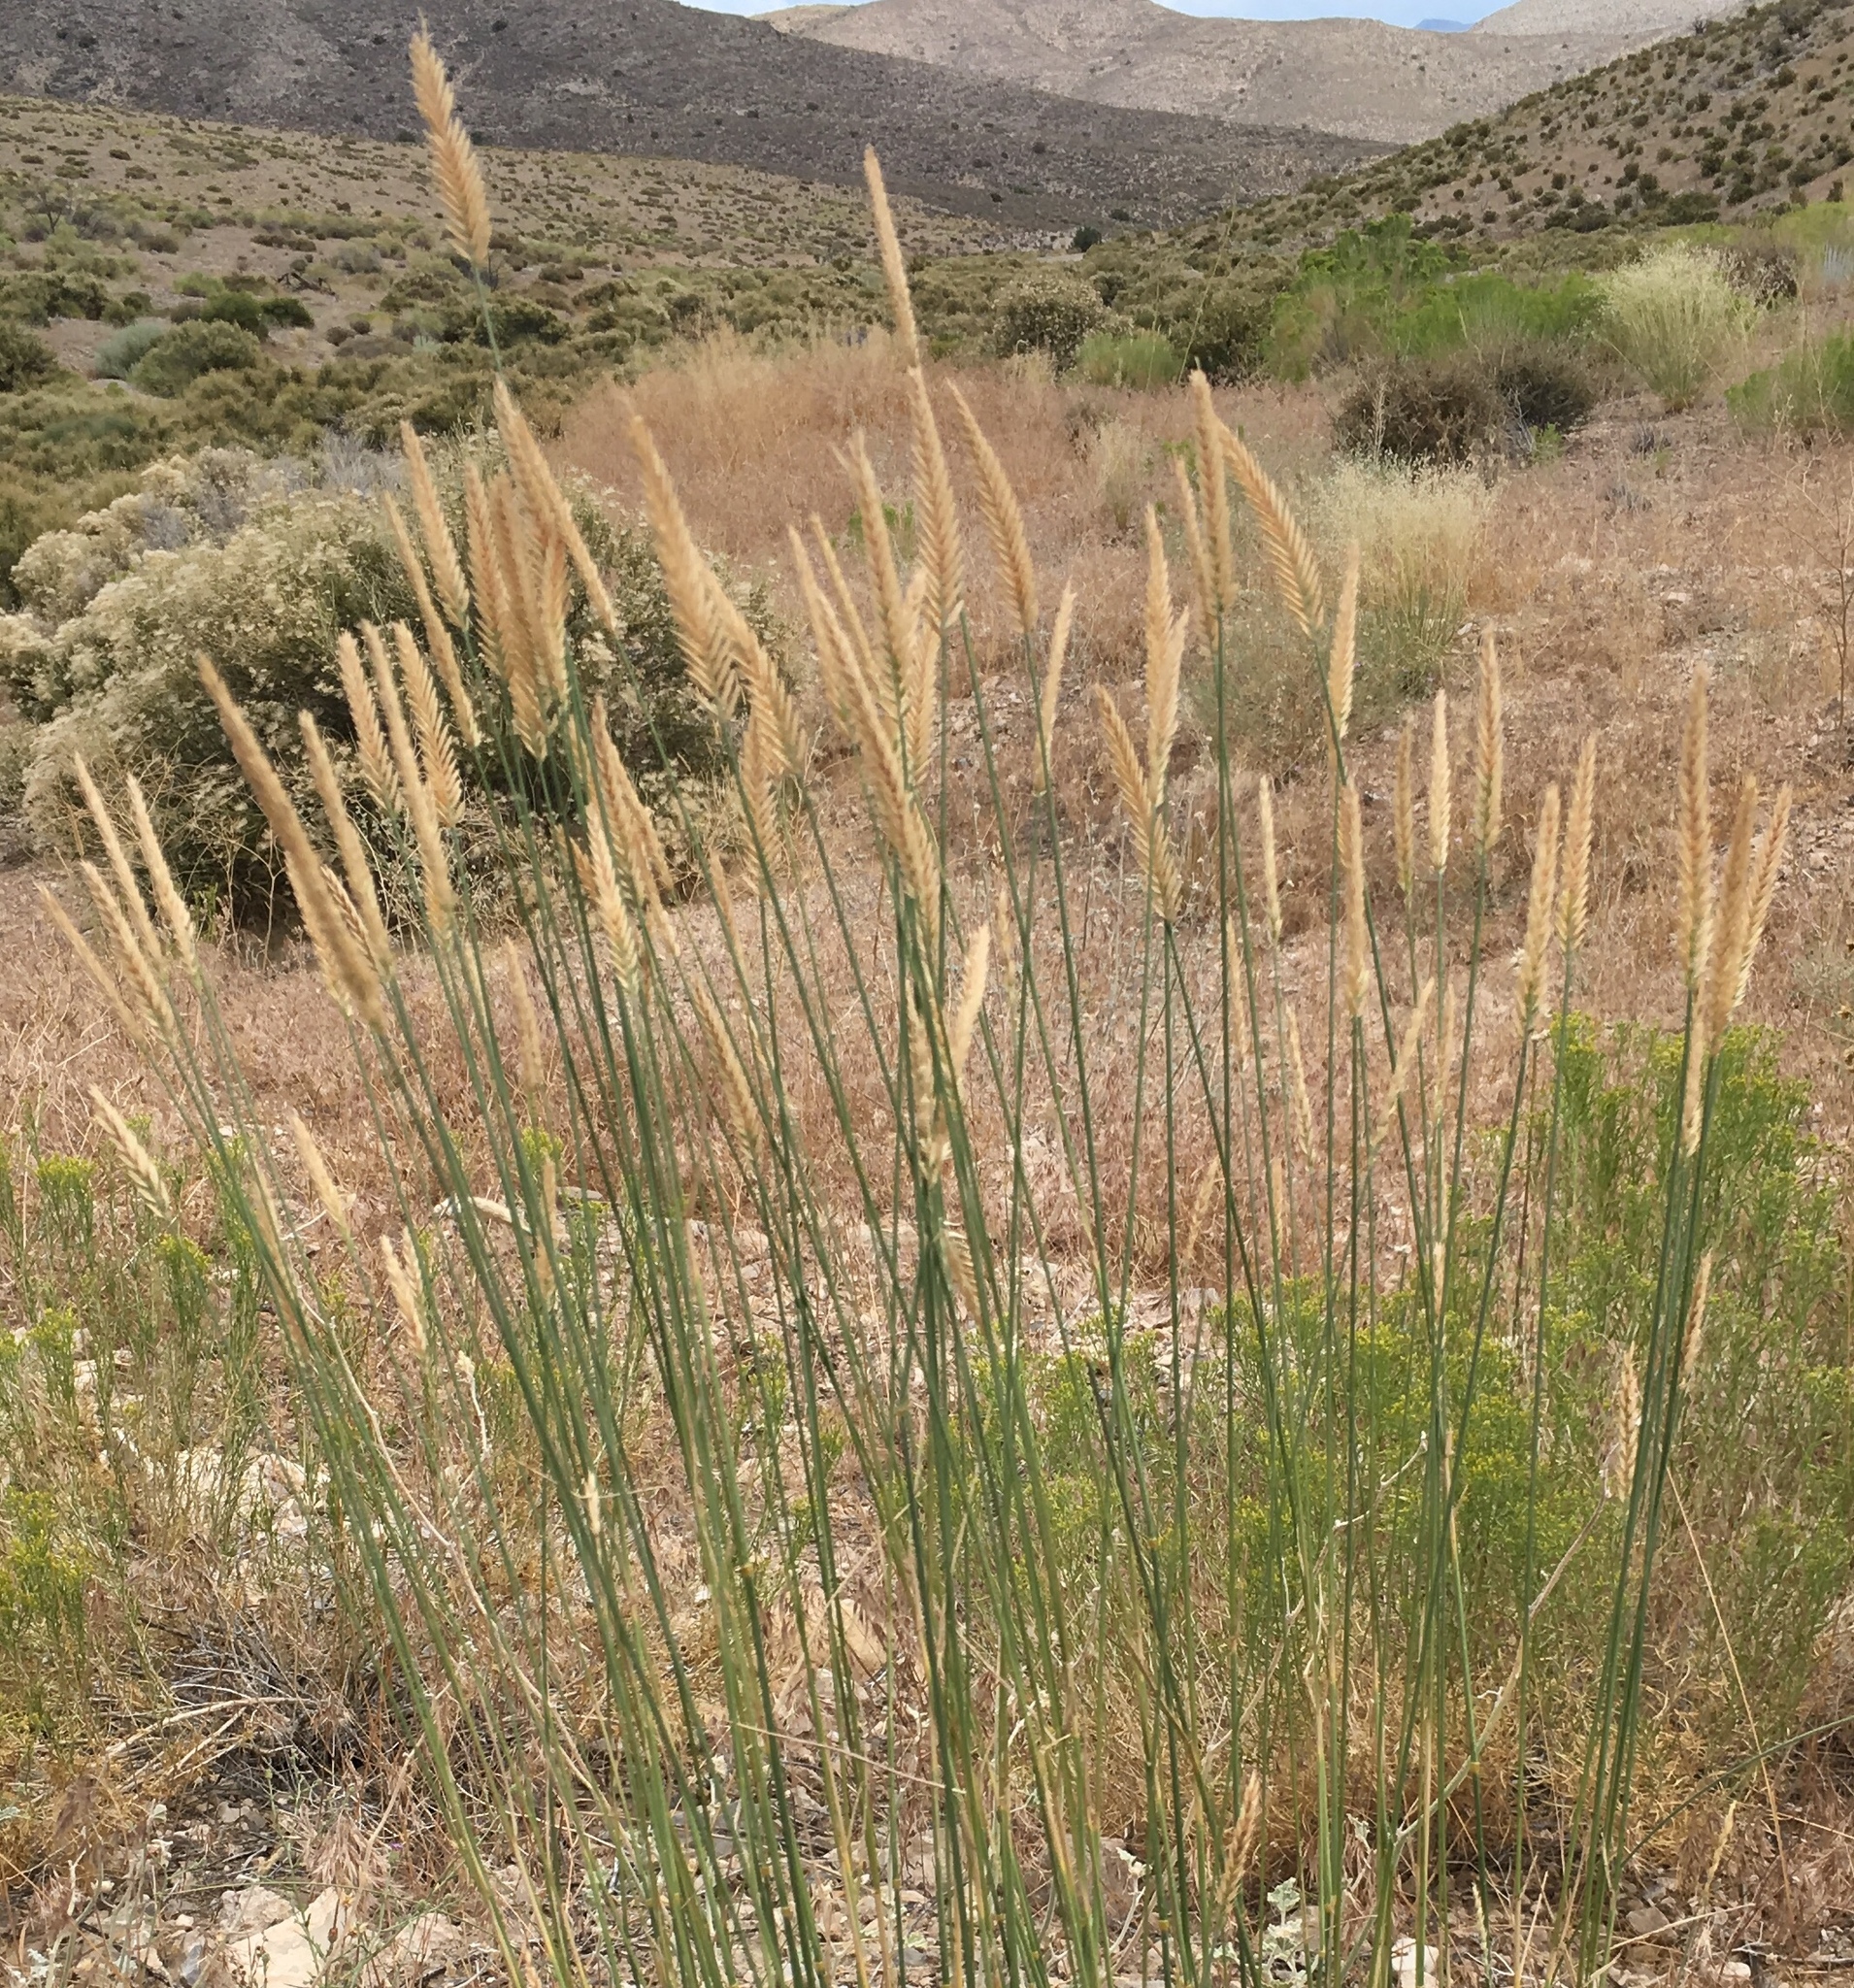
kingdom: Plantae
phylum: Tracheophyta
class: Liliopsida
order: Poales
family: Poaceae
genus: Agropyron
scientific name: Agropyron cristatum
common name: Crested wheatgrass
